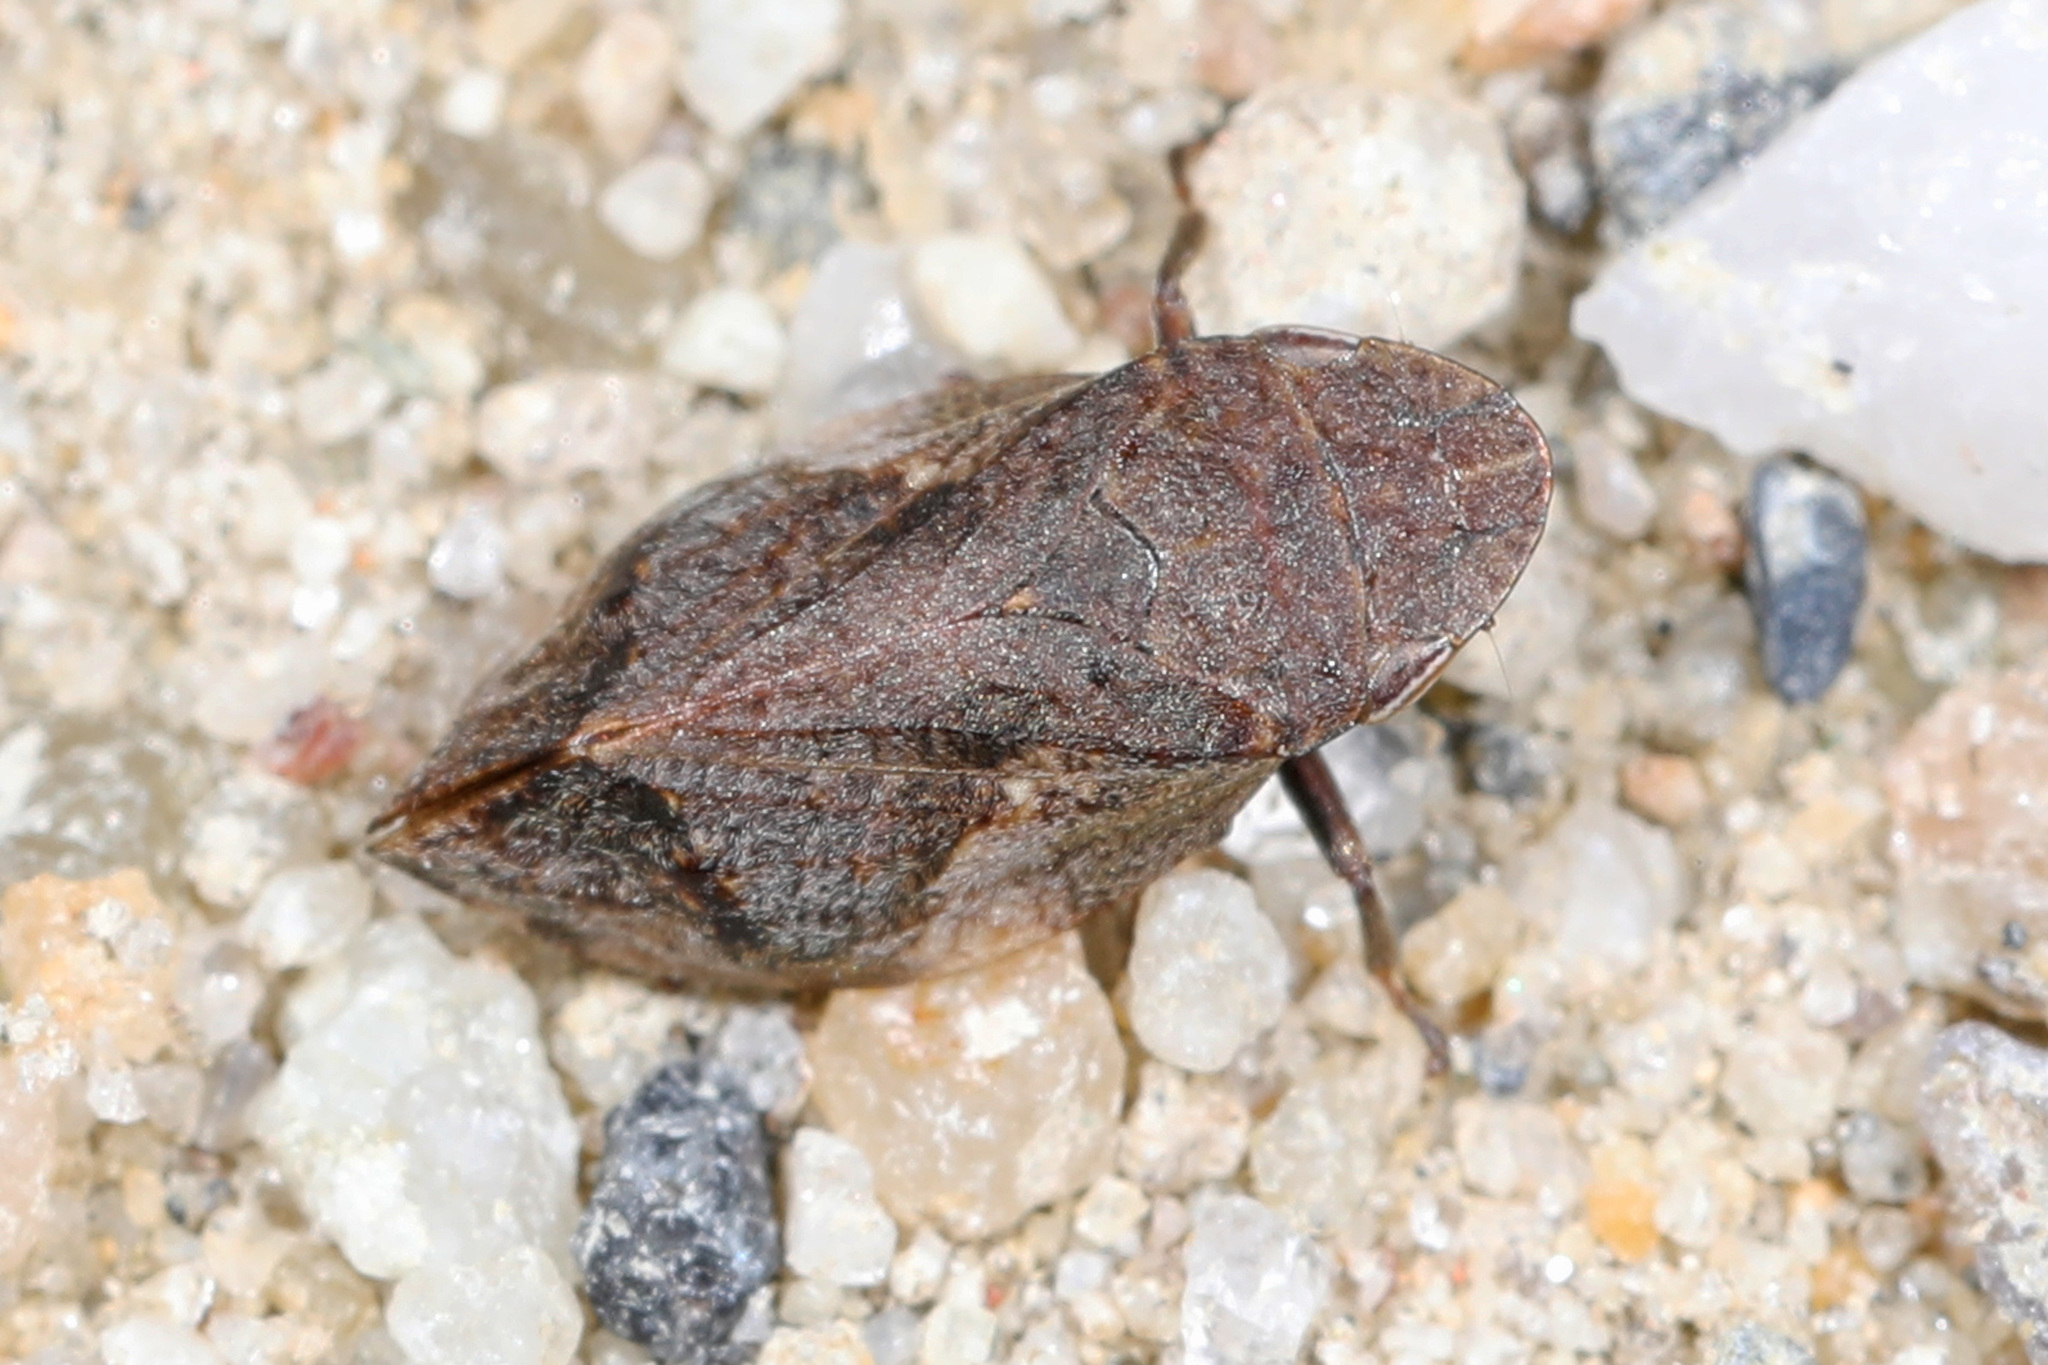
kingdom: Animalia
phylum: Arthropoda
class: Insecta
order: Hemiptera
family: Aphrophoridae
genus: Lepyronia
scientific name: Lepyronia quadrangularis
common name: Diamond-backed spittlebug
